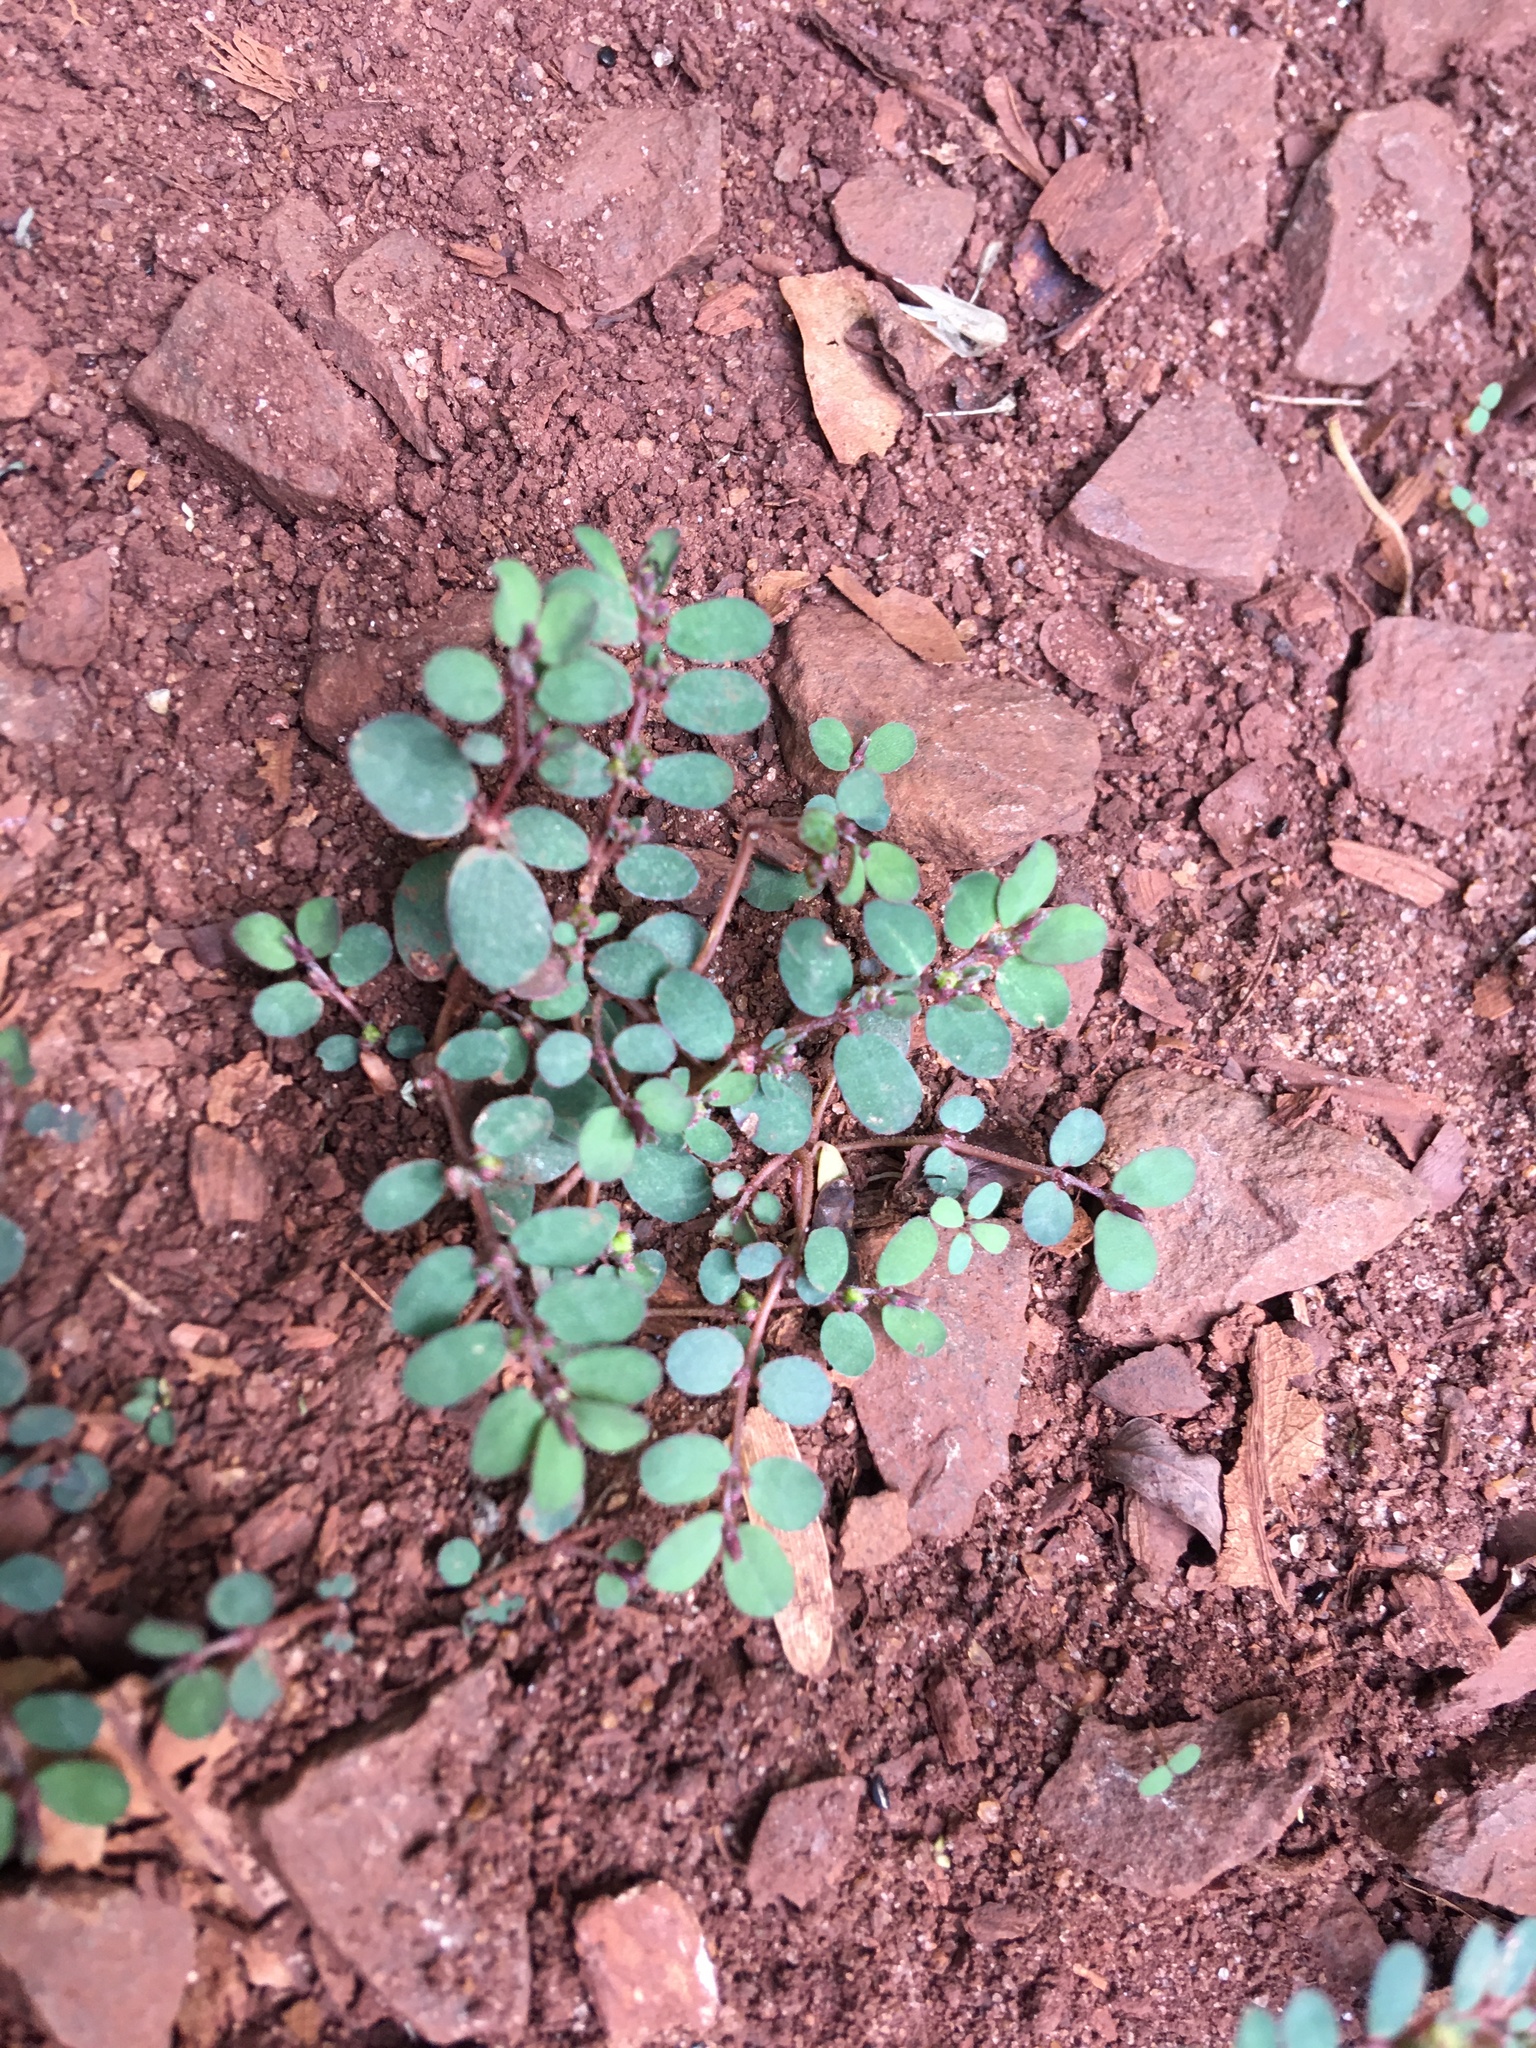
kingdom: Plantae
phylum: Tracheophyta
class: Magnoliopsida
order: Malpighiales
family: Euphorbiaceae
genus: Euphorbia
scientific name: Euphorbia prostrata
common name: Prostrate sandmat
